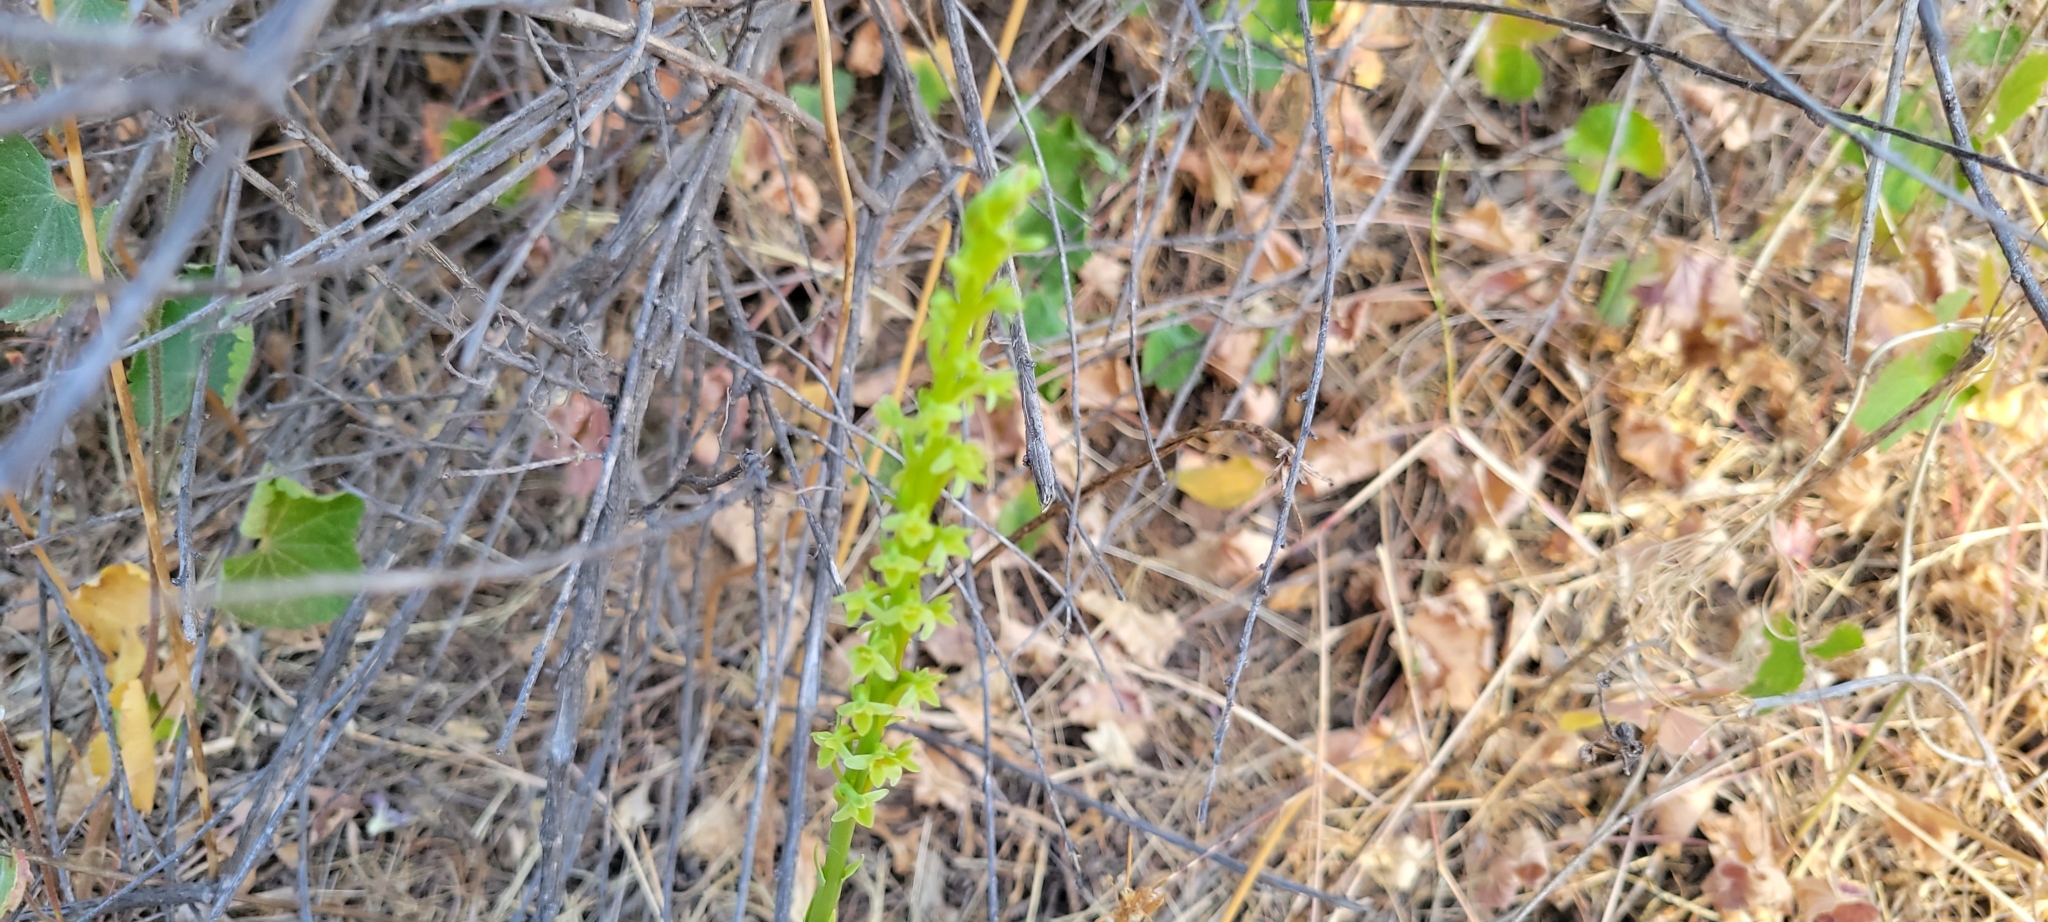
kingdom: Plantae
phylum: Tracheophyta
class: Liliopsida
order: Asparagales
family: Orchidaceae
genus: Platanthera
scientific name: Platanthera michaelii
